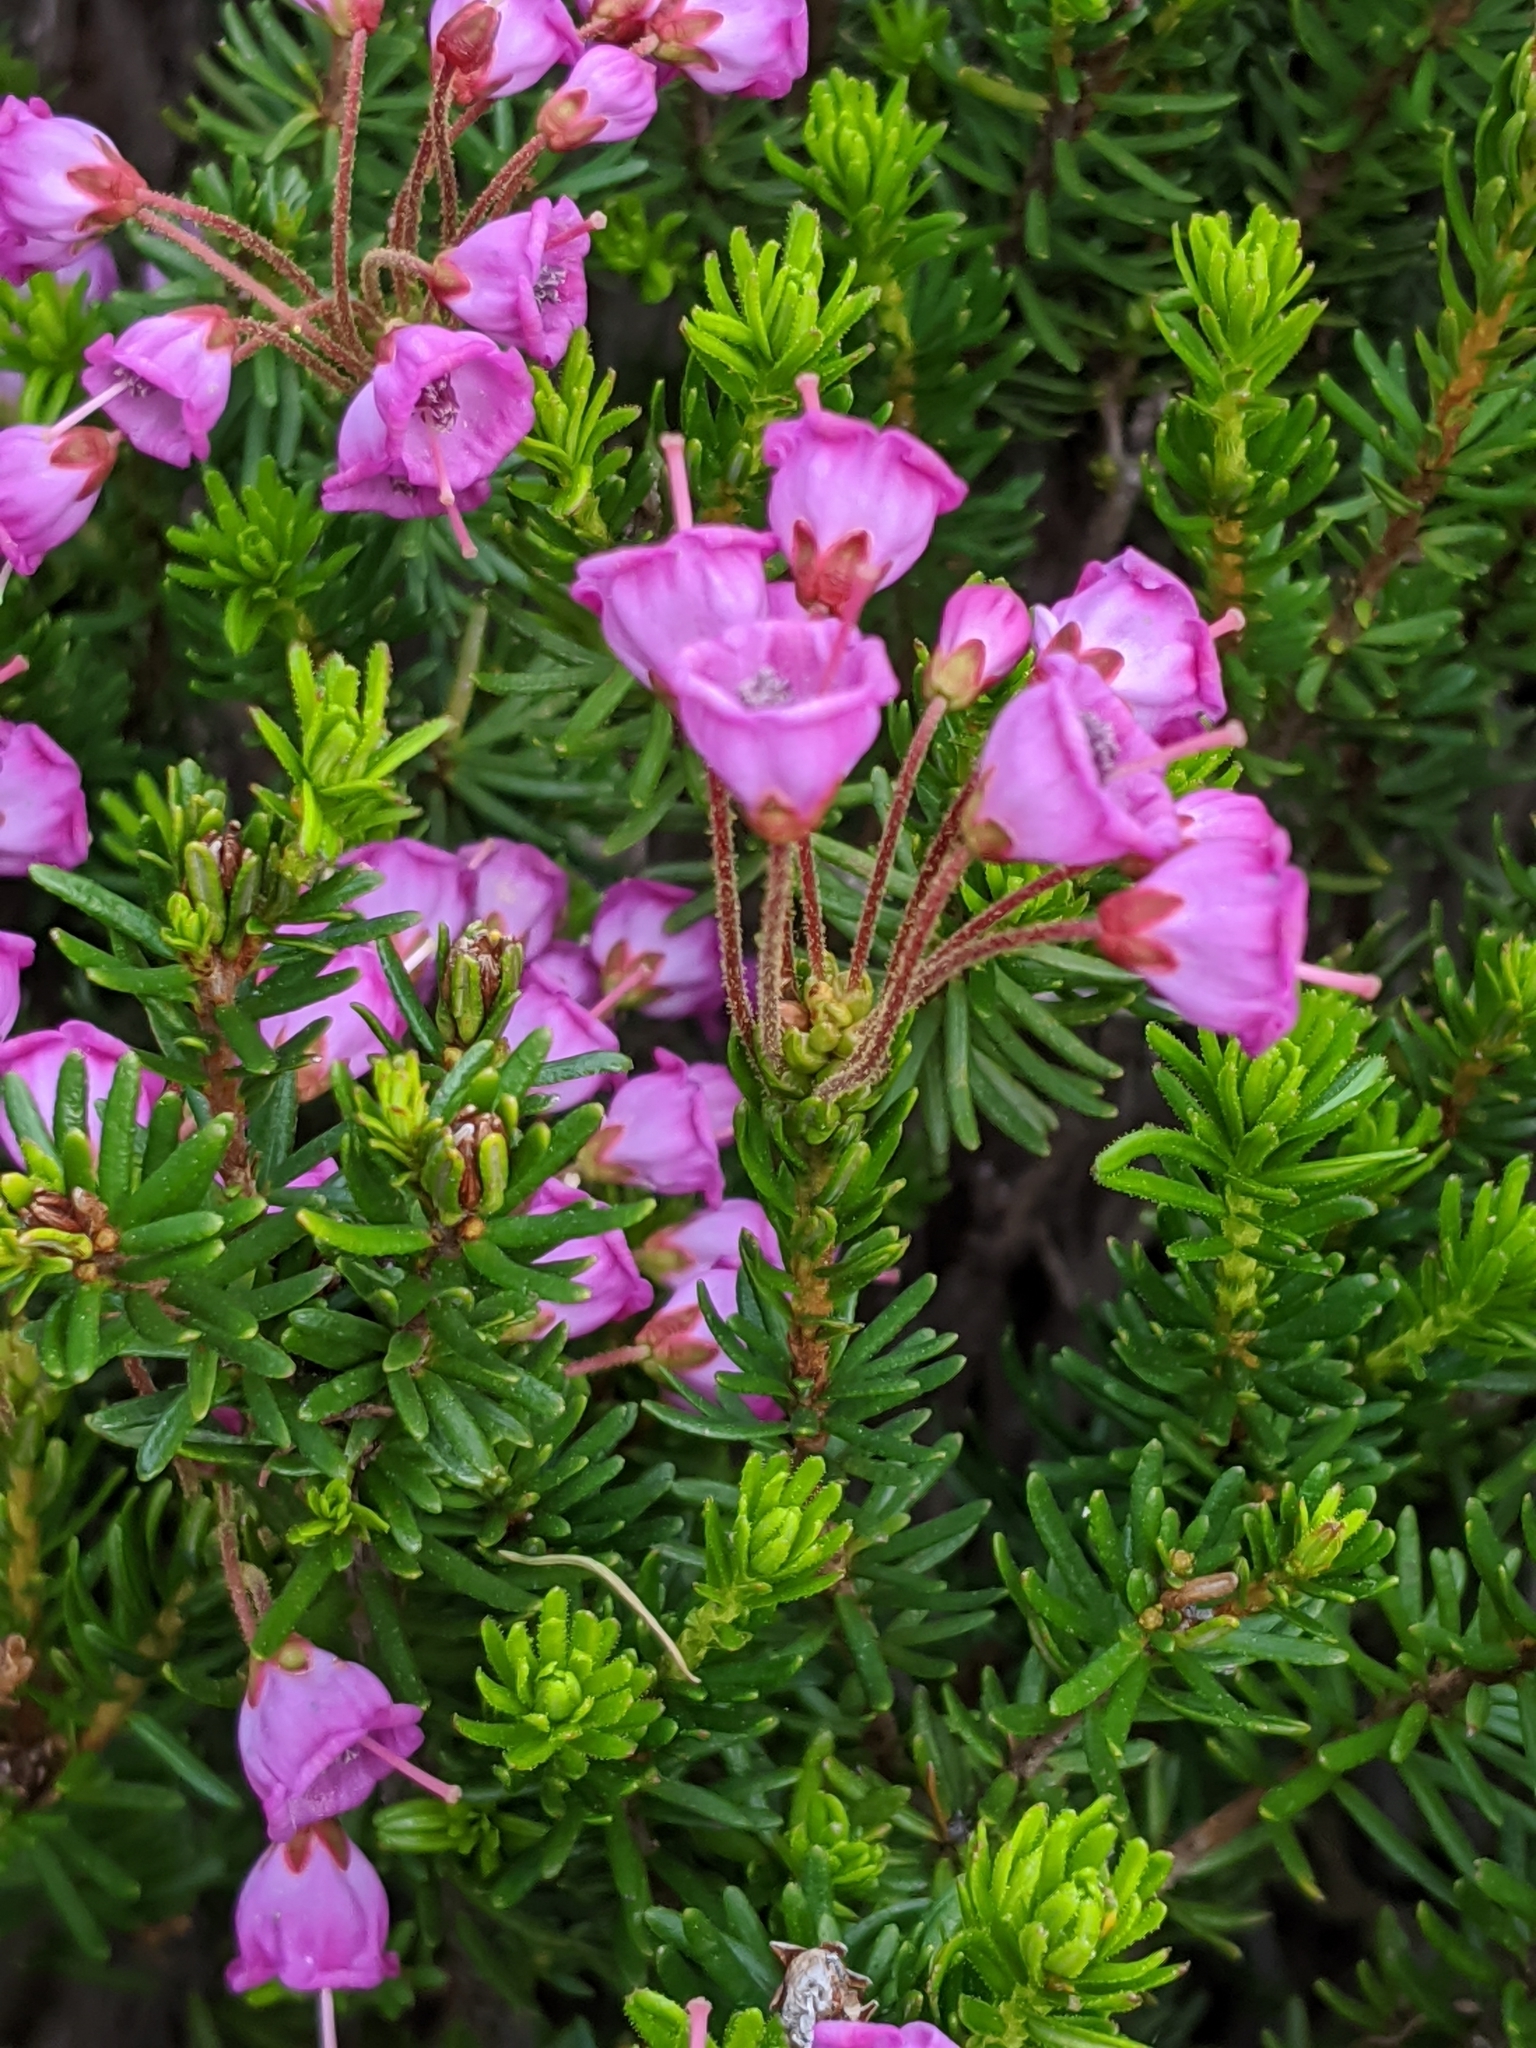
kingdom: Plantae
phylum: Tracheophyta
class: Magnoliopsida
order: Ericales
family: Ericaceae
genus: Phyllodoce
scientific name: Phyllodoce empetriformis
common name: Pink mountain heather
